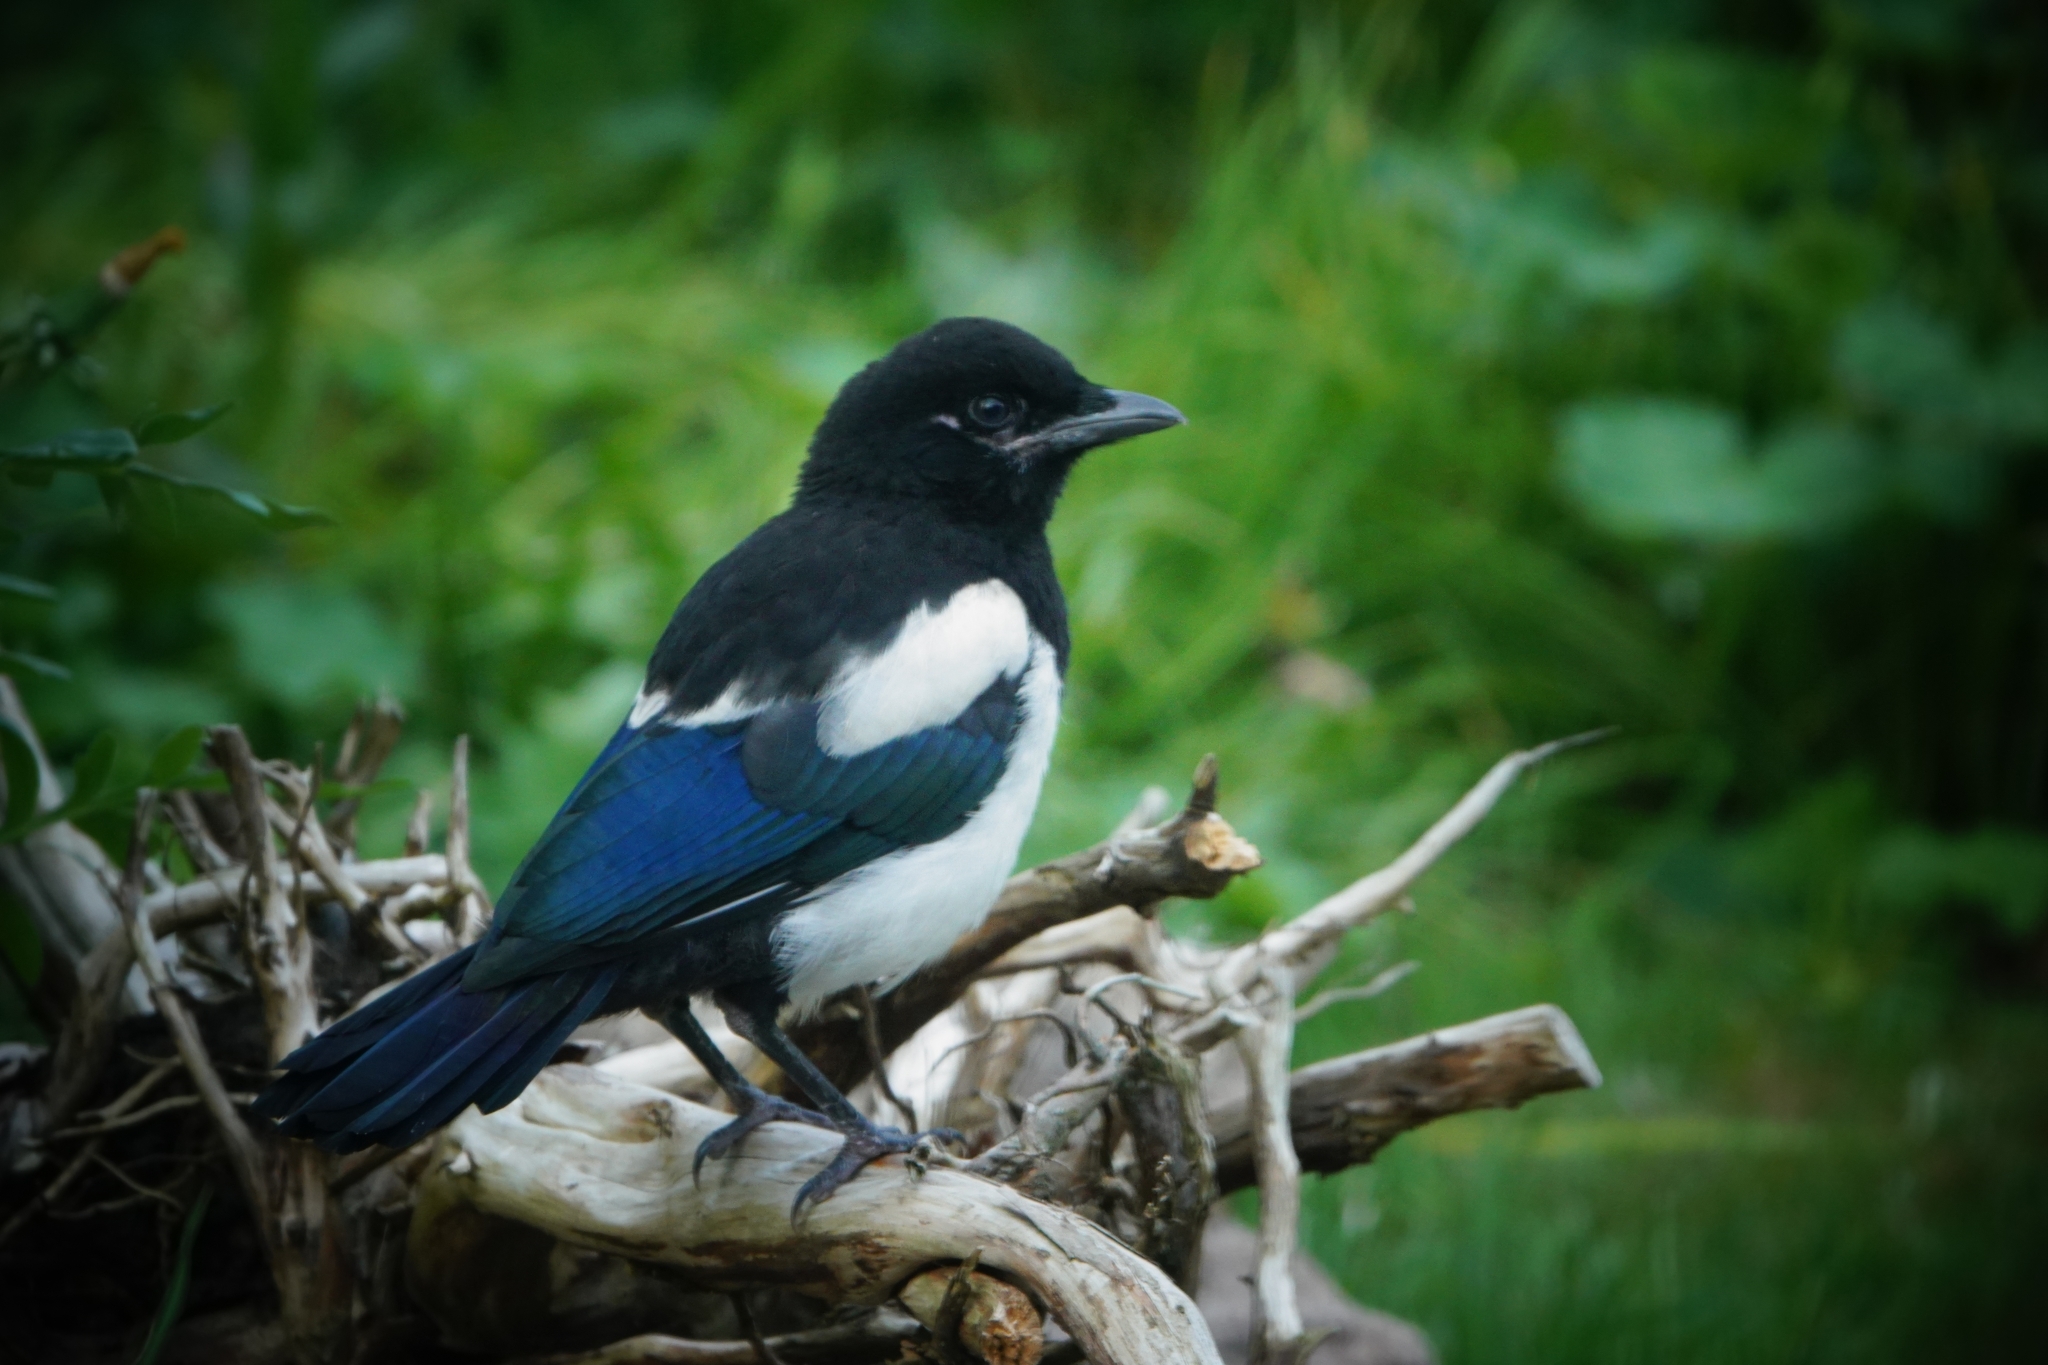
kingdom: Animalia
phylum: Chordata
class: Aves
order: Passeriformes
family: Corvidae
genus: Pica
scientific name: Pica pica
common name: Eurasian magpie
